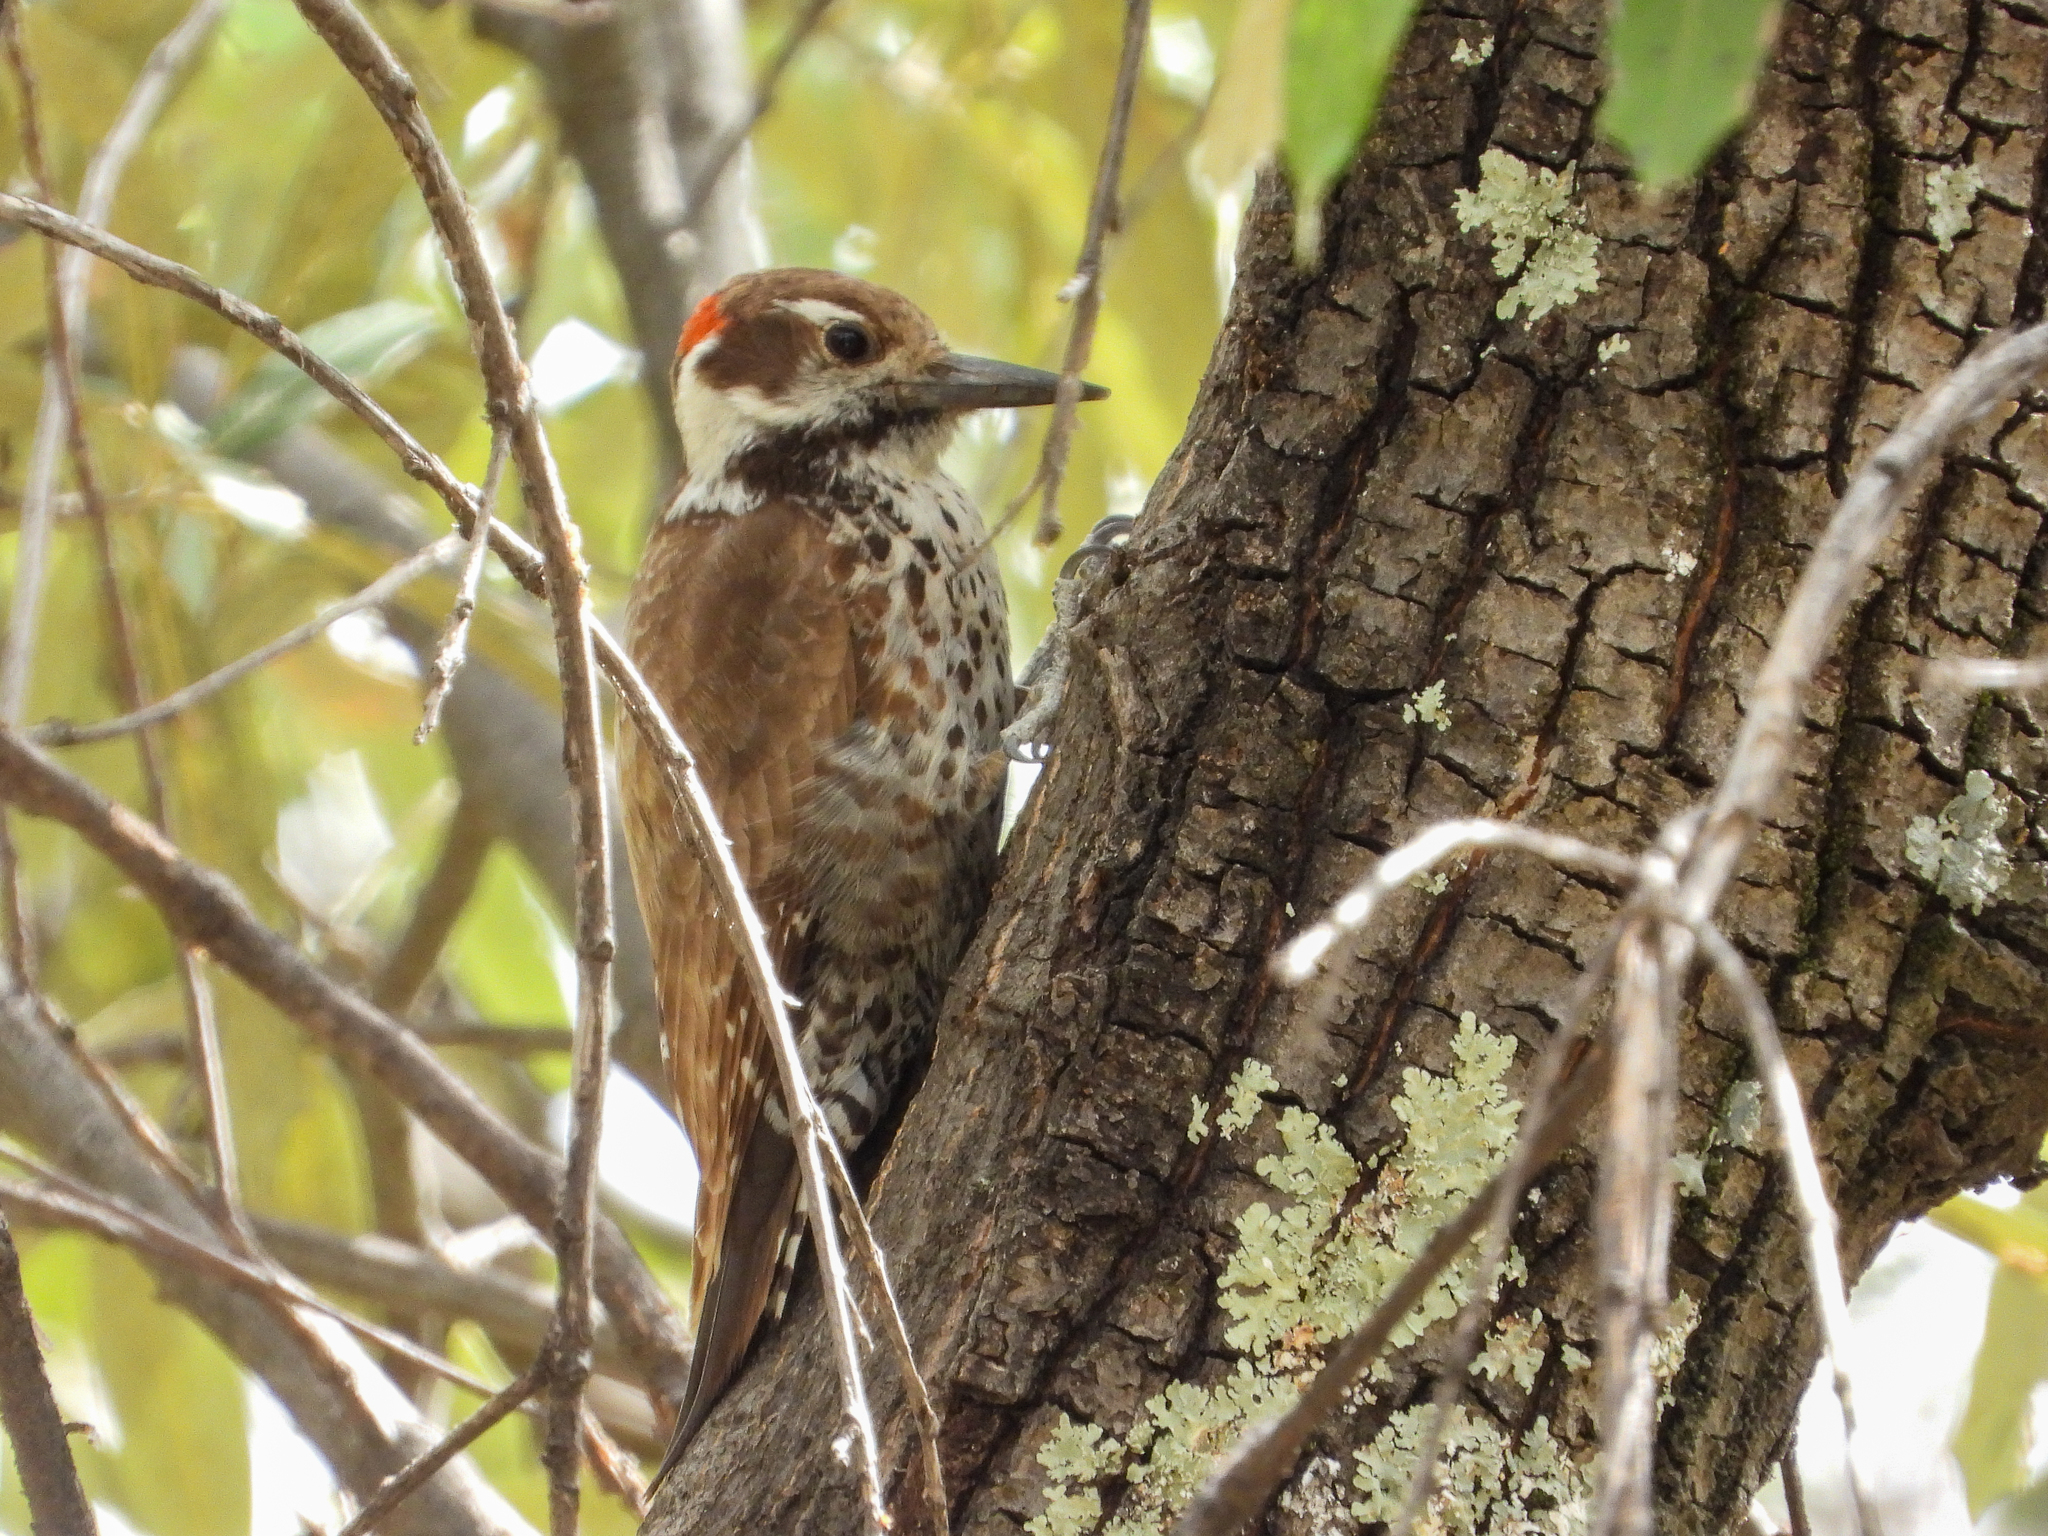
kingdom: Animalia
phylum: Chordata
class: Aves
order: Piciformes
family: Picidae
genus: Leuconotopicus
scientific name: Leuconotopicus arizonae
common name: Arizona woodpecker
